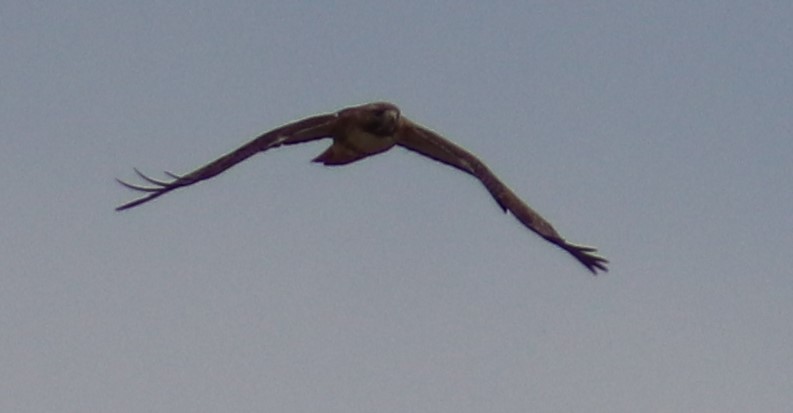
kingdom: Animalia
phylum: Chordata
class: Aves
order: Accipitriformes
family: Accipitridae
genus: Buteo
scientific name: Buteo jamaicensis
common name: Red-tailed hawk
